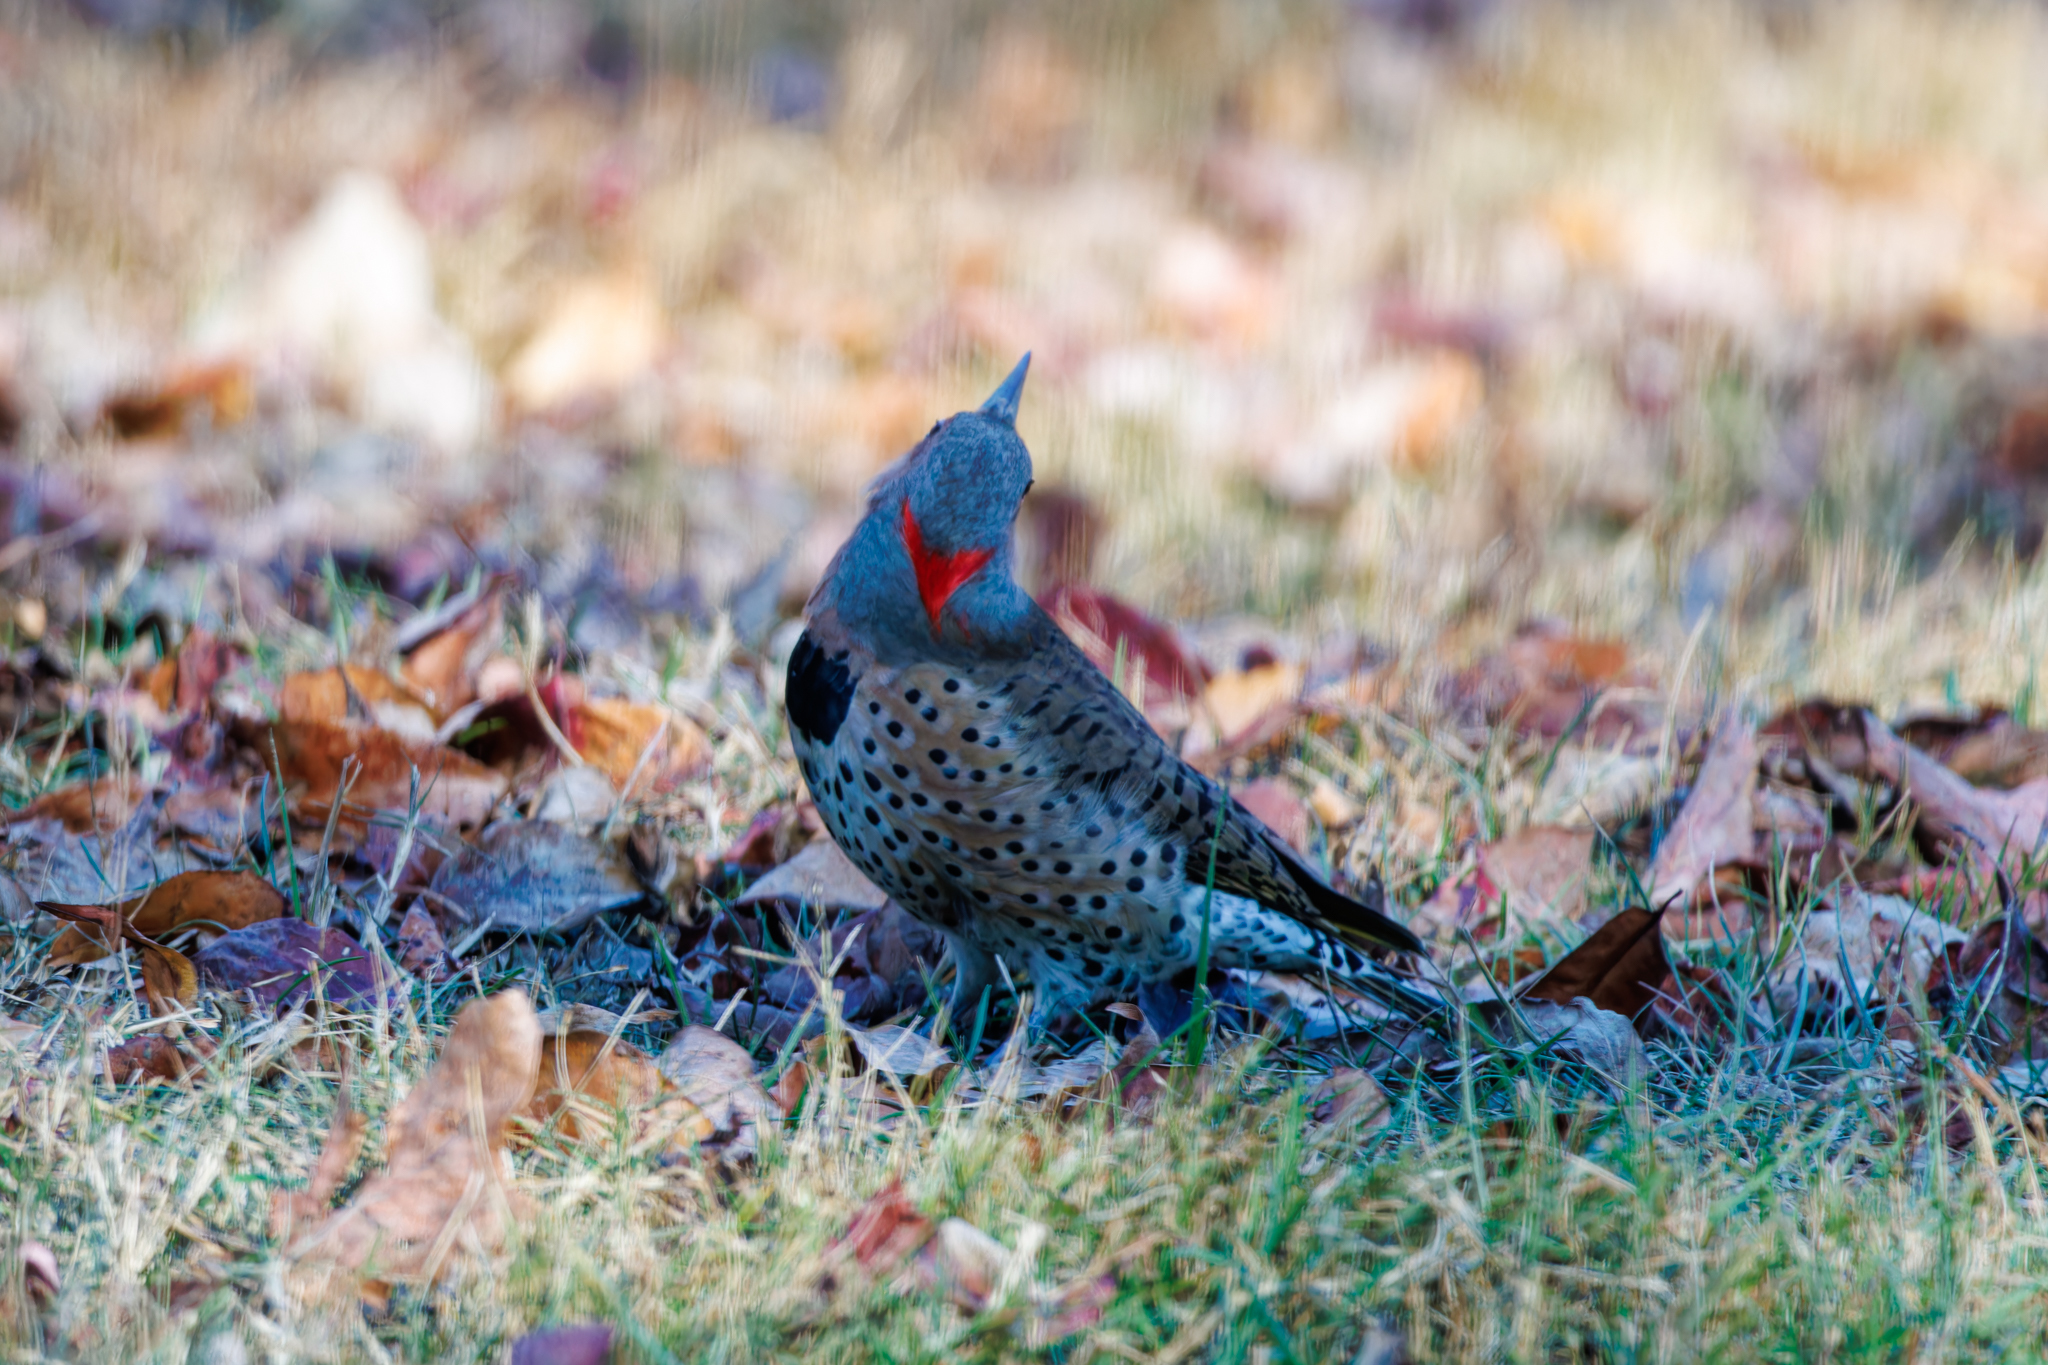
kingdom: Animalia
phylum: Chordata
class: Aves
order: Piciformes
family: Picidae
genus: Colaptes
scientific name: Colaptes auratus
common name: Northern flicker
